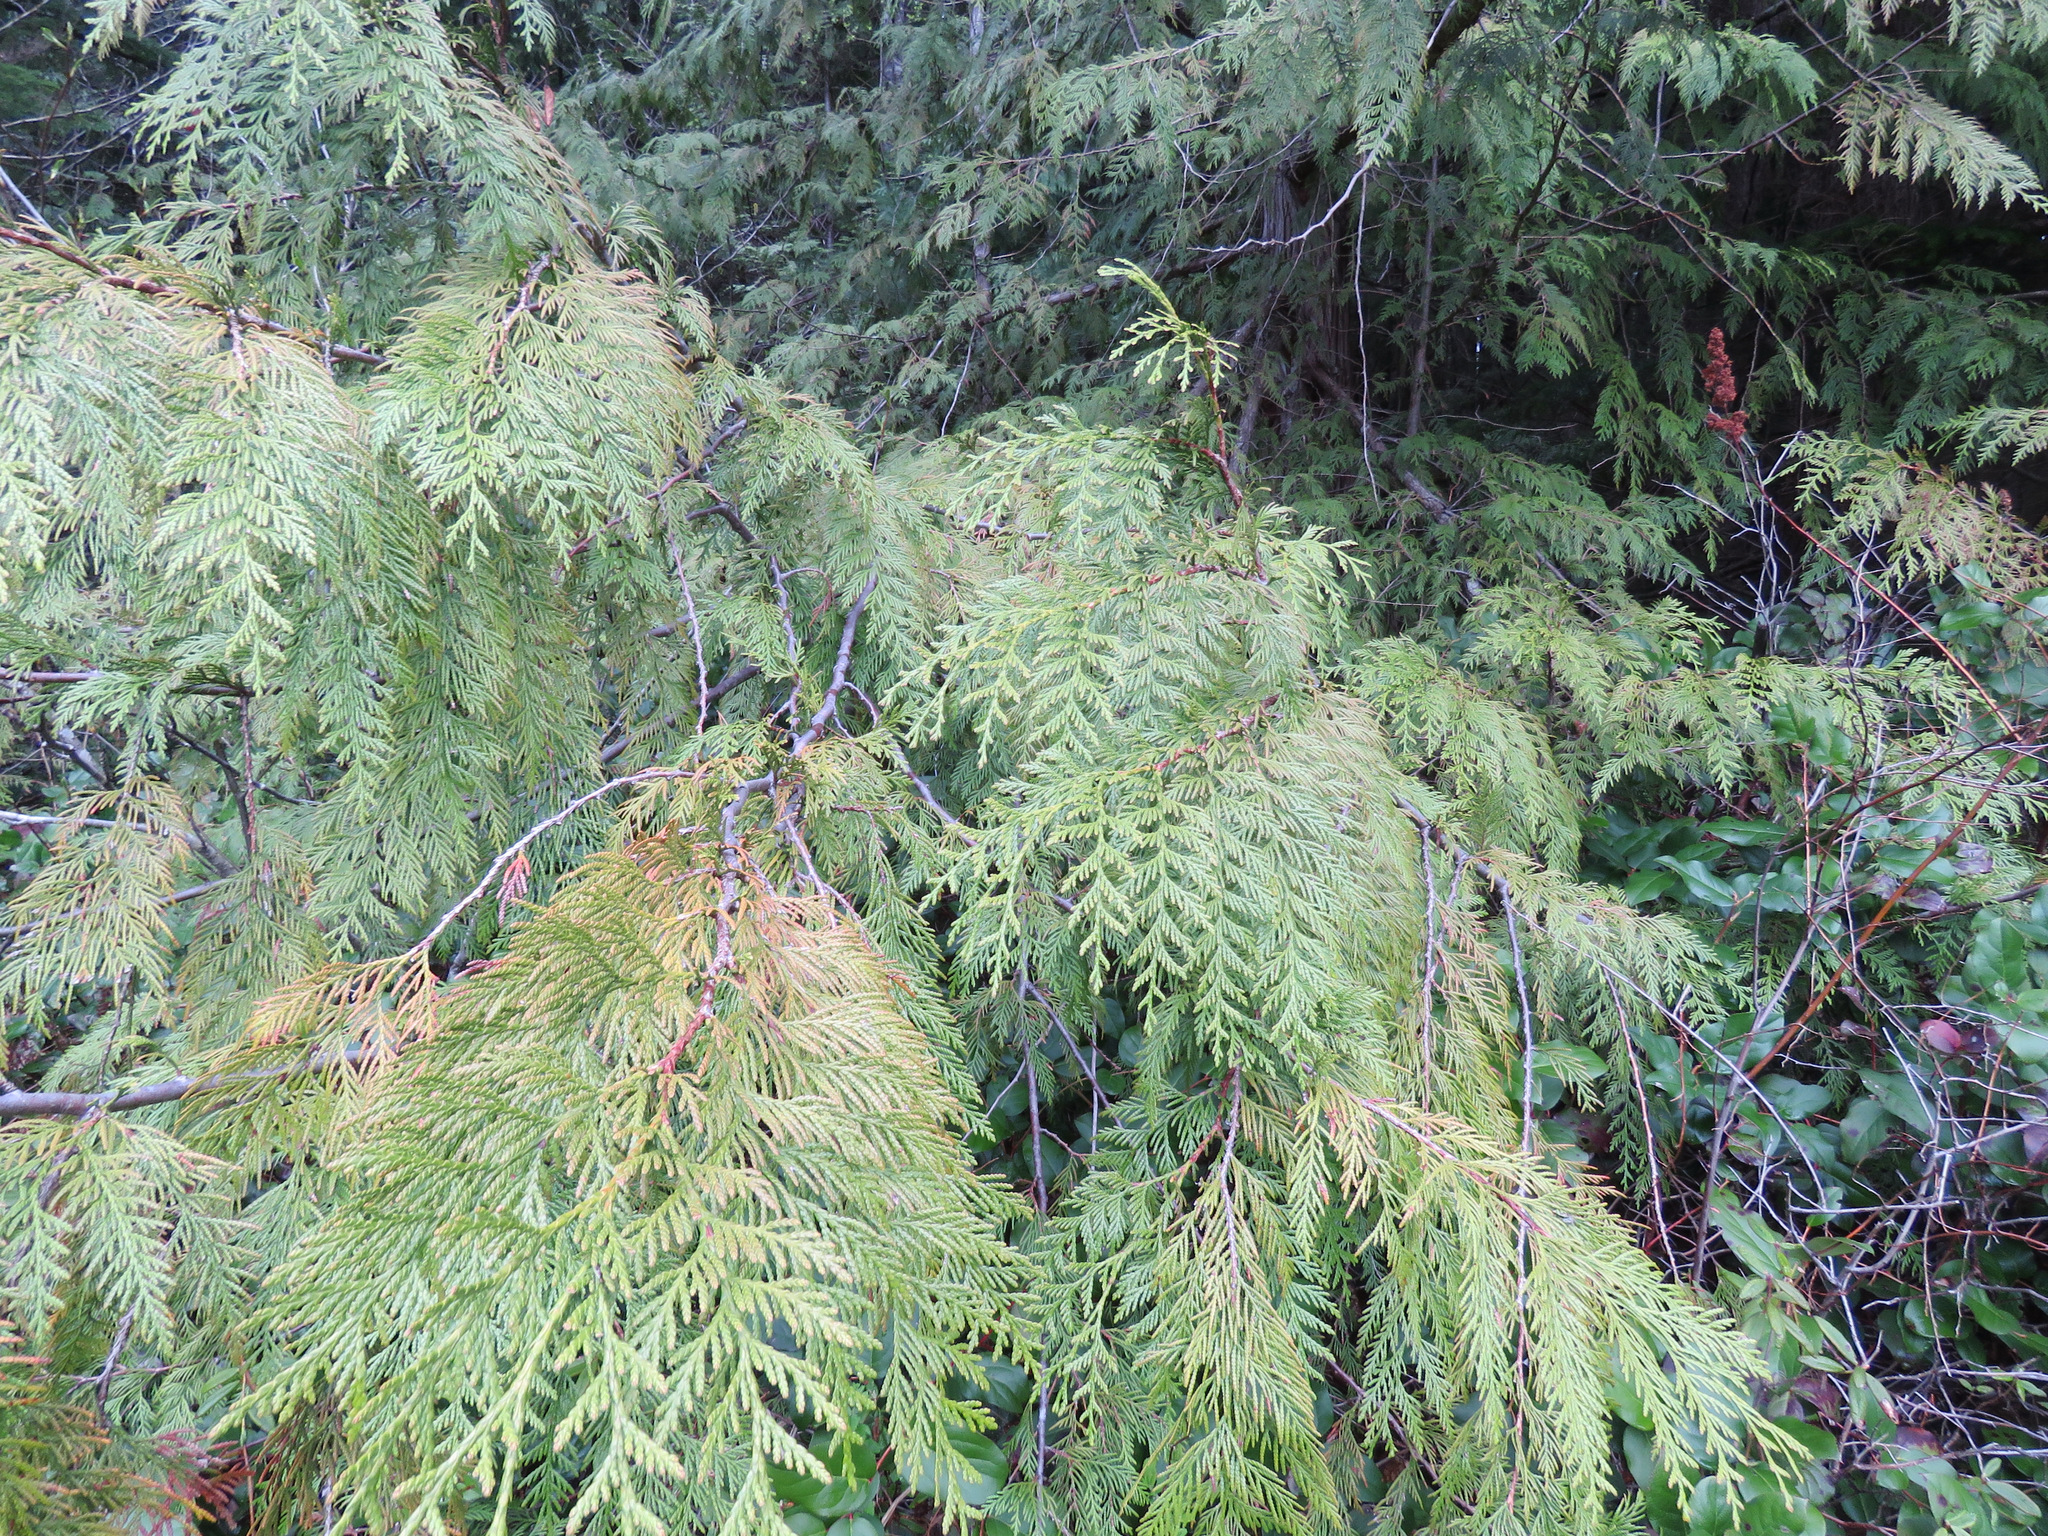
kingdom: Plantae
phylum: Tracheophyta
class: Pinopsida
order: Pinales
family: Cupressaceae
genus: Thuja
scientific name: Thuja plicata
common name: Western red-cedar
